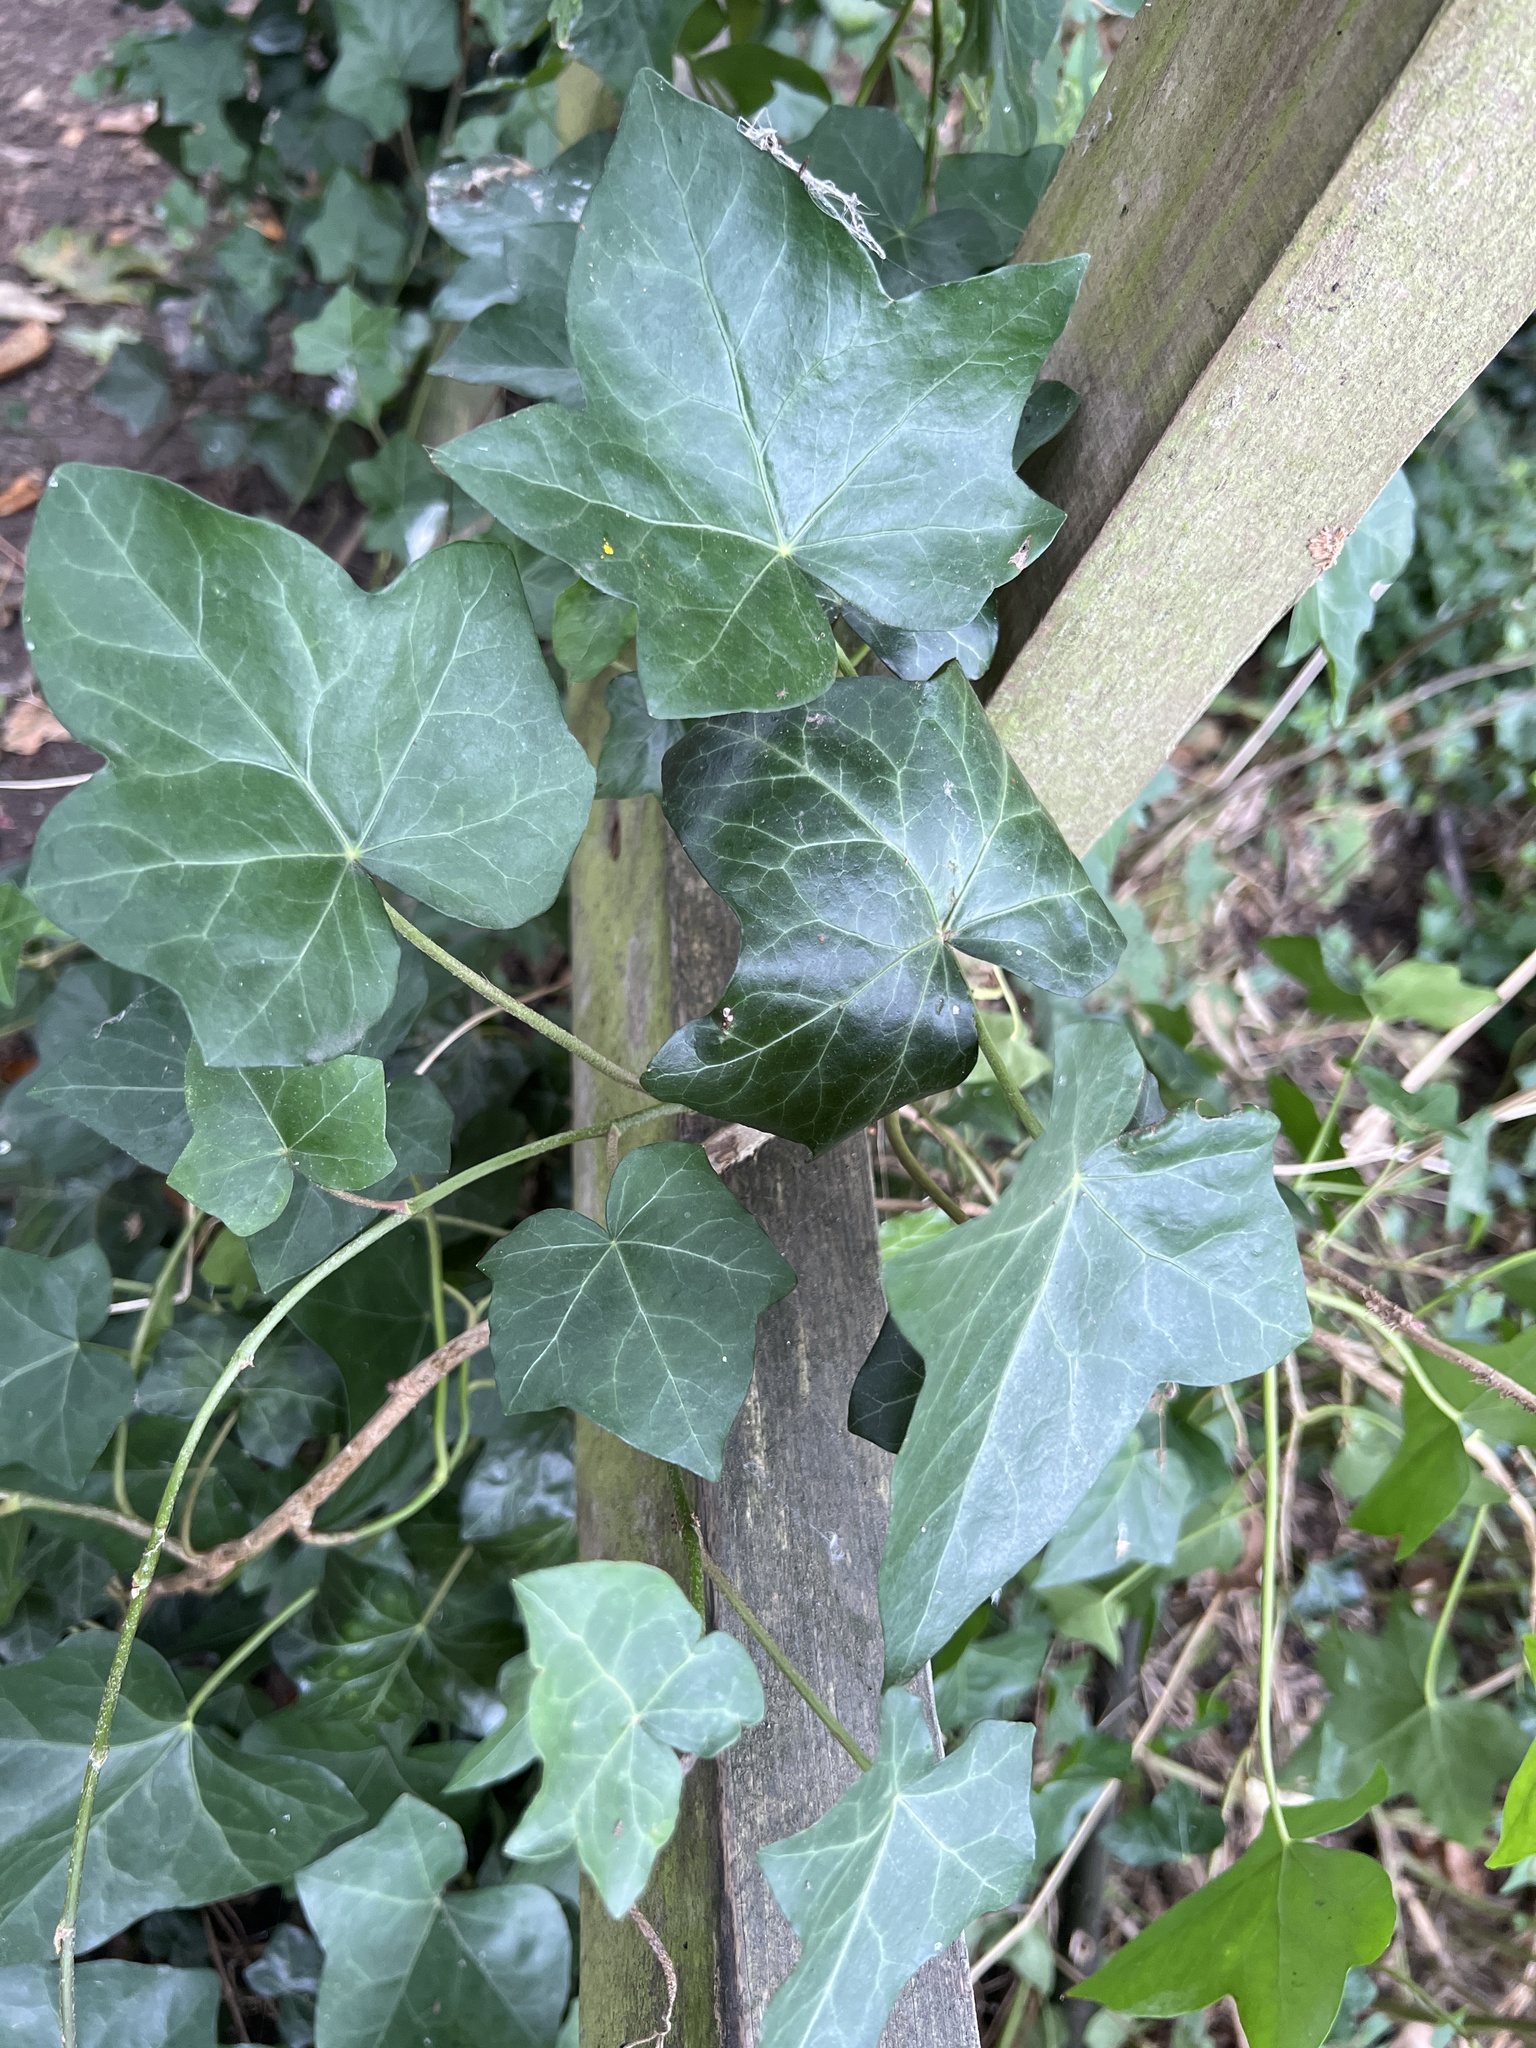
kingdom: Plantae
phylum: Tracheophyta
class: Magnoliopsida
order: Apiales
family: Araliaceae
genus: Hedera
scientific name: Hedera helix
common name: Ivy
